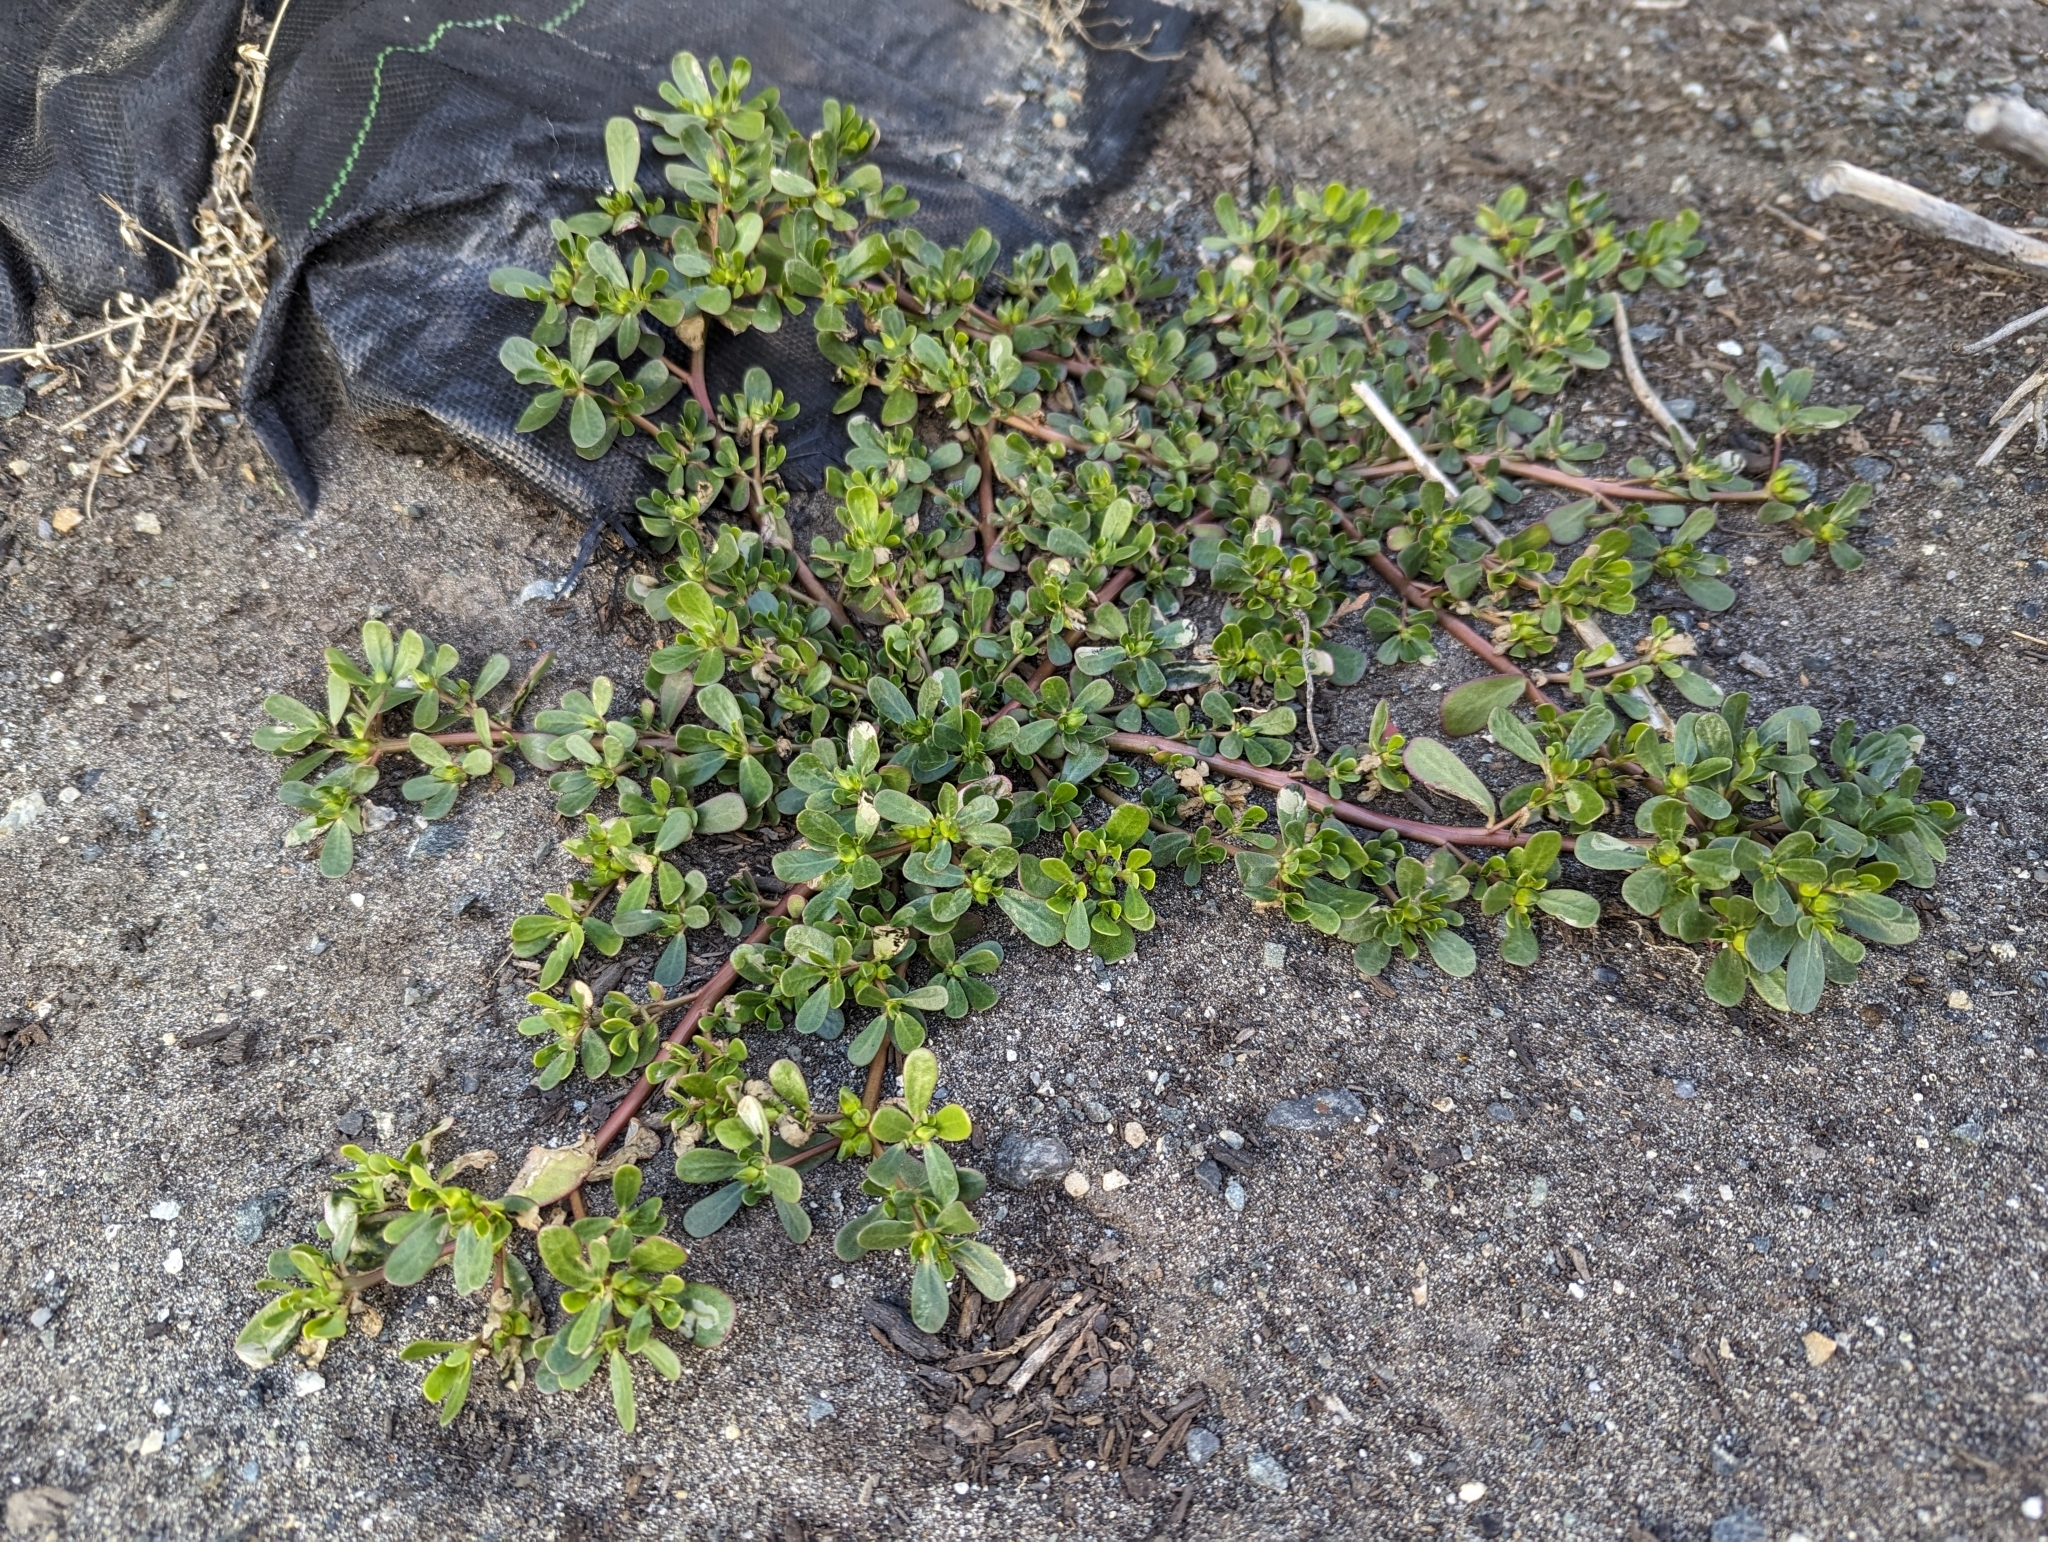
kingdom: Plantae
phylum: Tracheophyta
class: Magnoliopsida
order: Caryophyllales
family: Portulacaceae
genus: Portulaca
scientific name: Portulaca oleracea
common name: Common purslane
